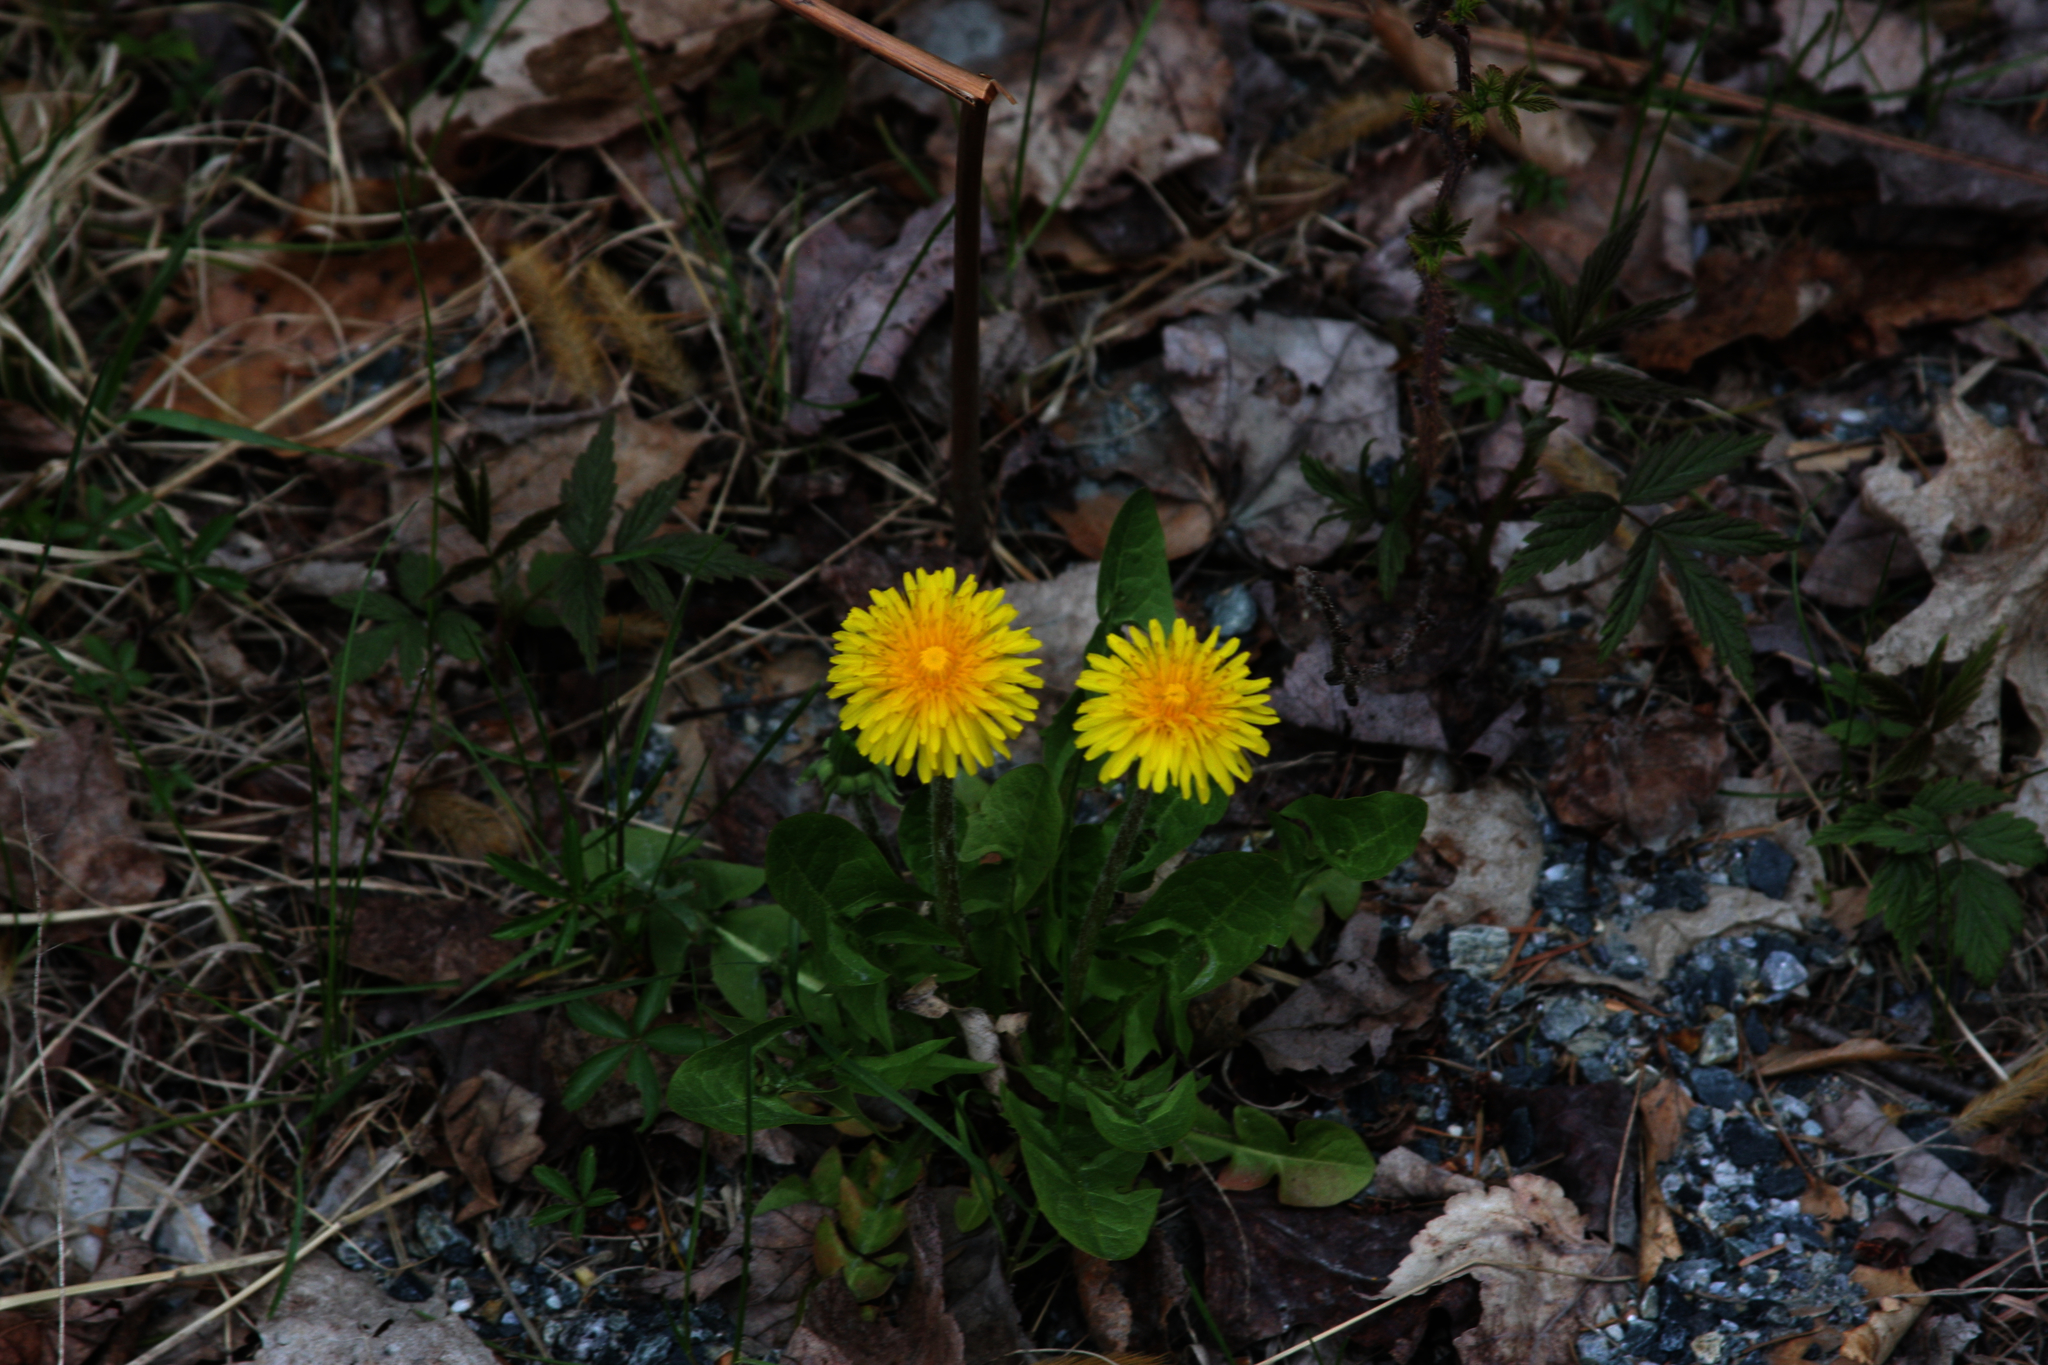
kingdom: Plantae
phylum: Tracheophyta
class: Magnoliopsida
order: Asterales
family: Asteraceae
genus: Taraxacum
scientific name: Taraxacum officinale
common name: Common dandelion
